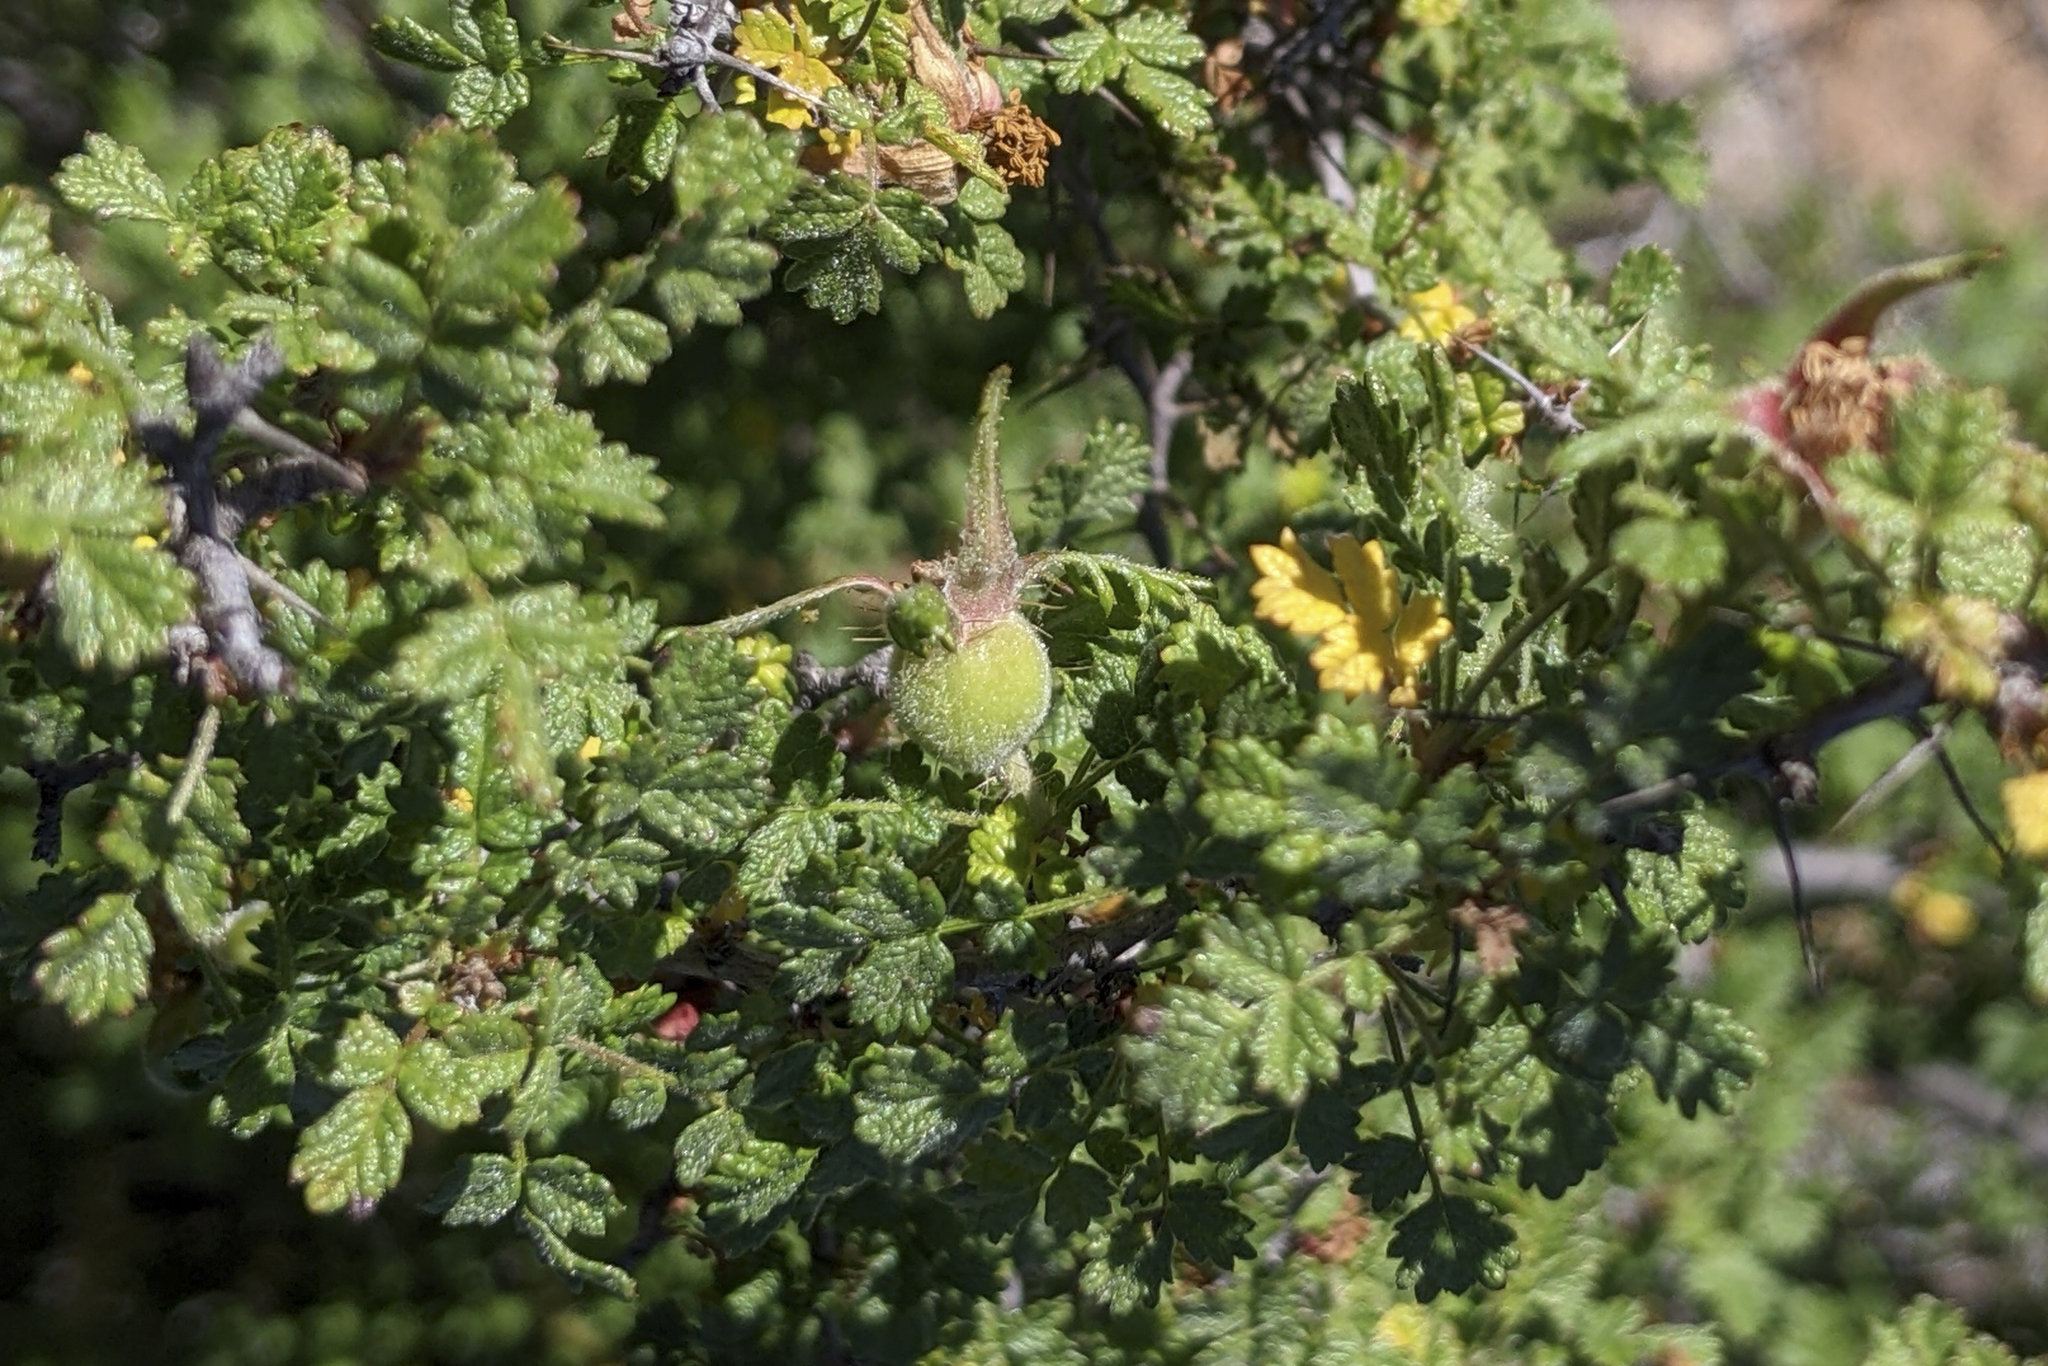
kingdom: Plantae
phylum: Tracheophyta
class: Magnoliopsida
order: Rosales
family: Rosaceae
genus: Rosa
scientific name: Rosa minutifolia
